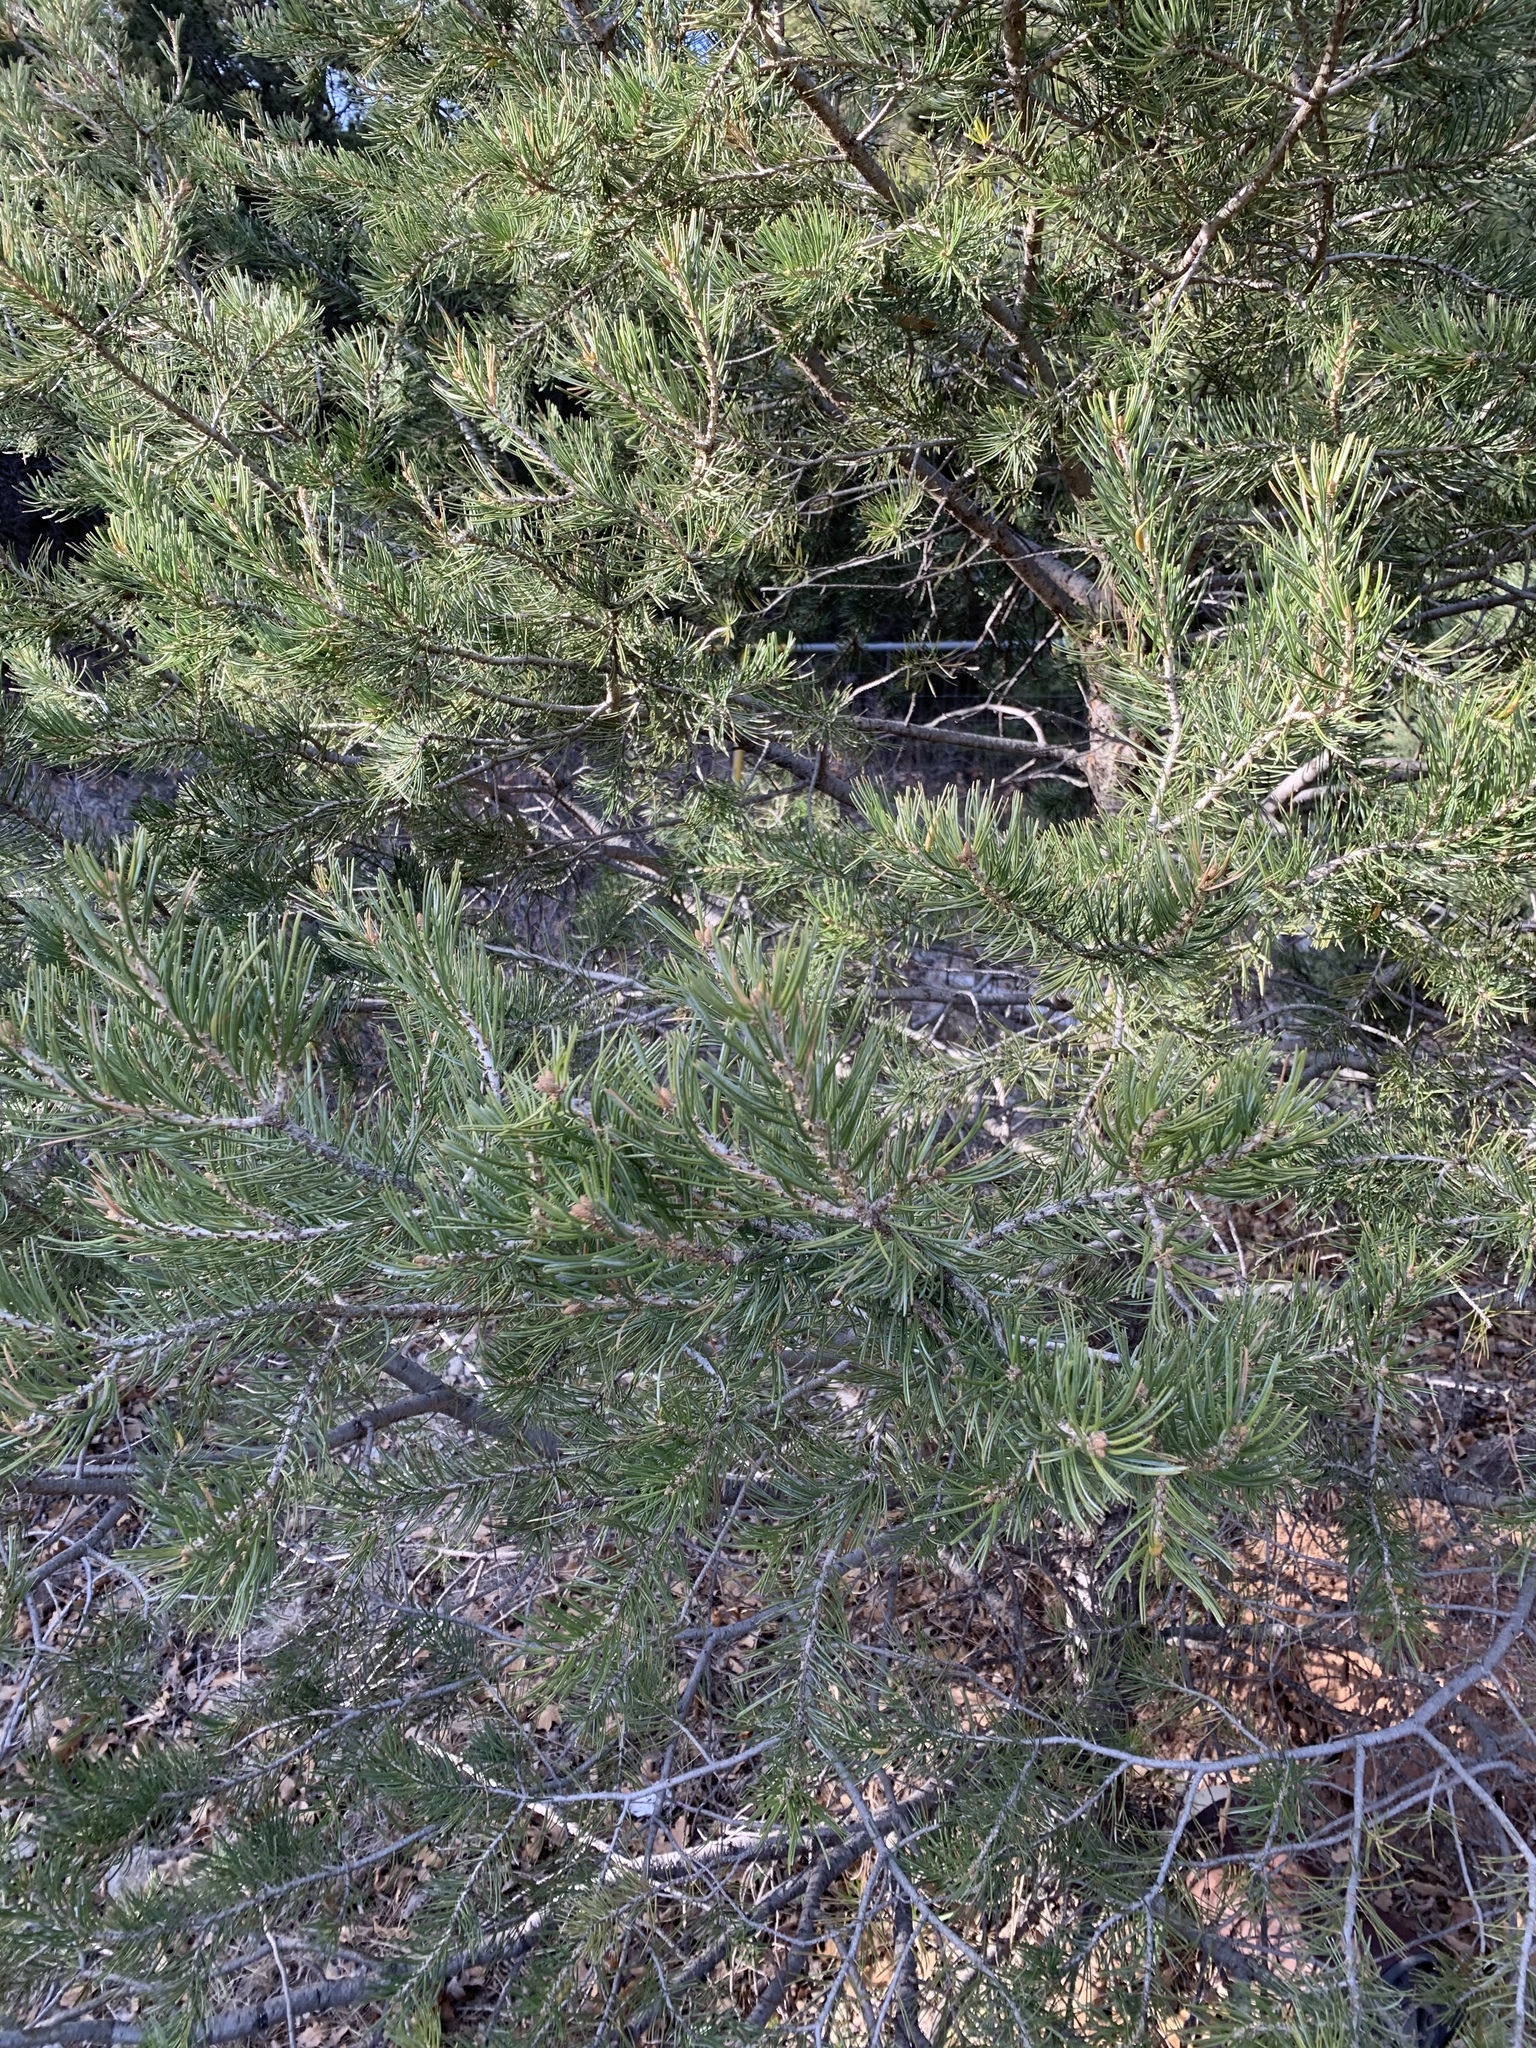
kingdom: Plantae
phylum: Tracheophyta
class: Pinopsida
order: Pinales
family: Pinaceae
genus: Pinus
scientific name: Pinus edulis
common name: Colorado pinyon
